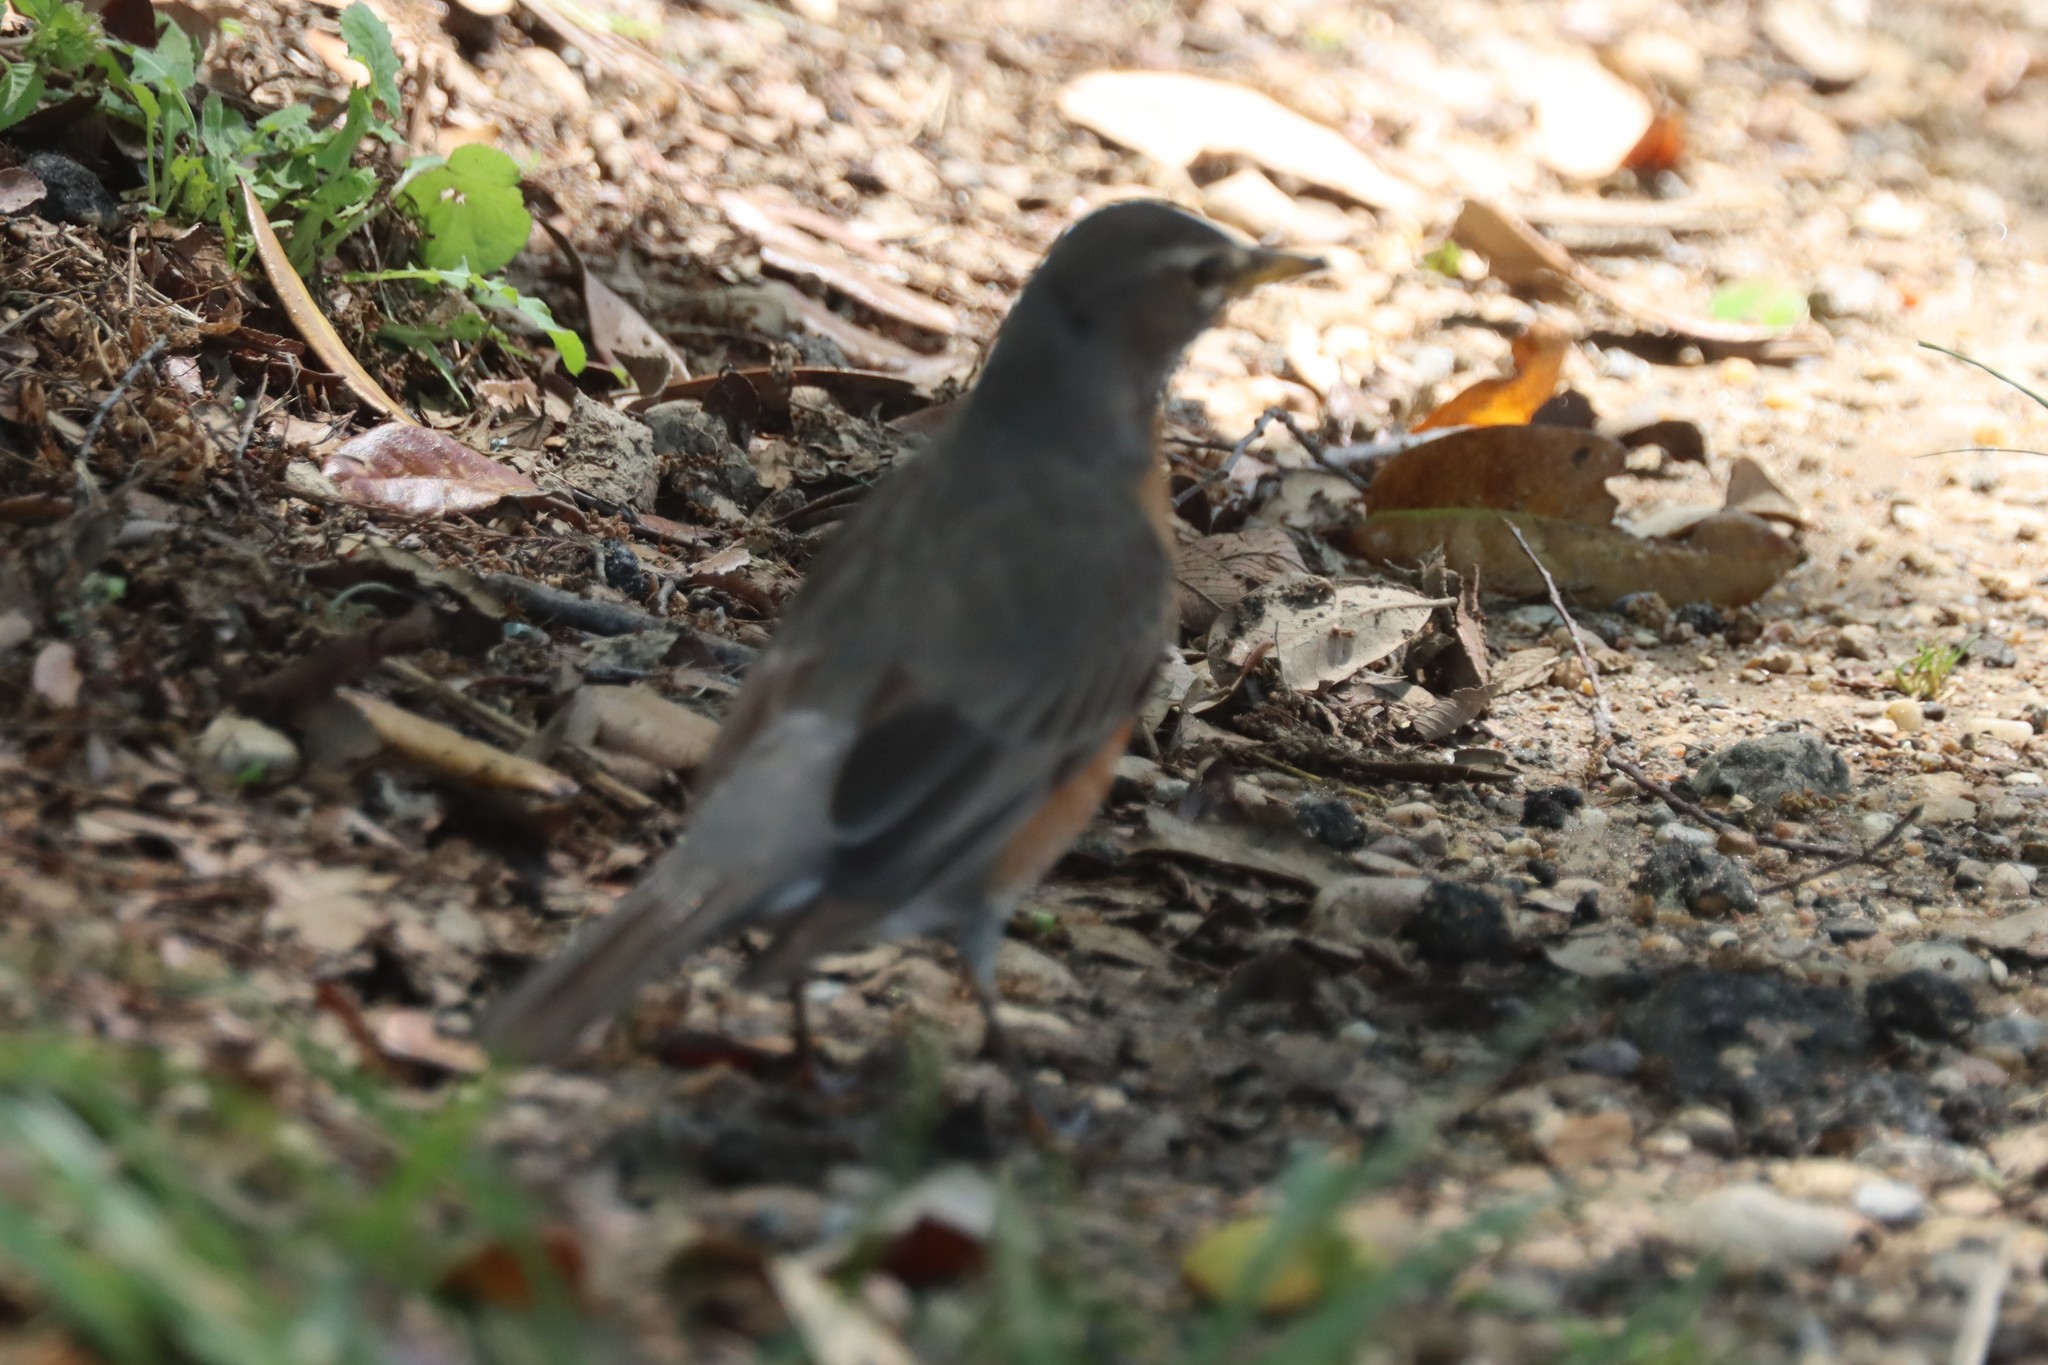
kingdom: Animalia
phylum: Chordata
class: Aves
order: Passeriformes
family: Turdidae
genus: Turdus
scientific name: Turdus migratorius
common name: American robin
